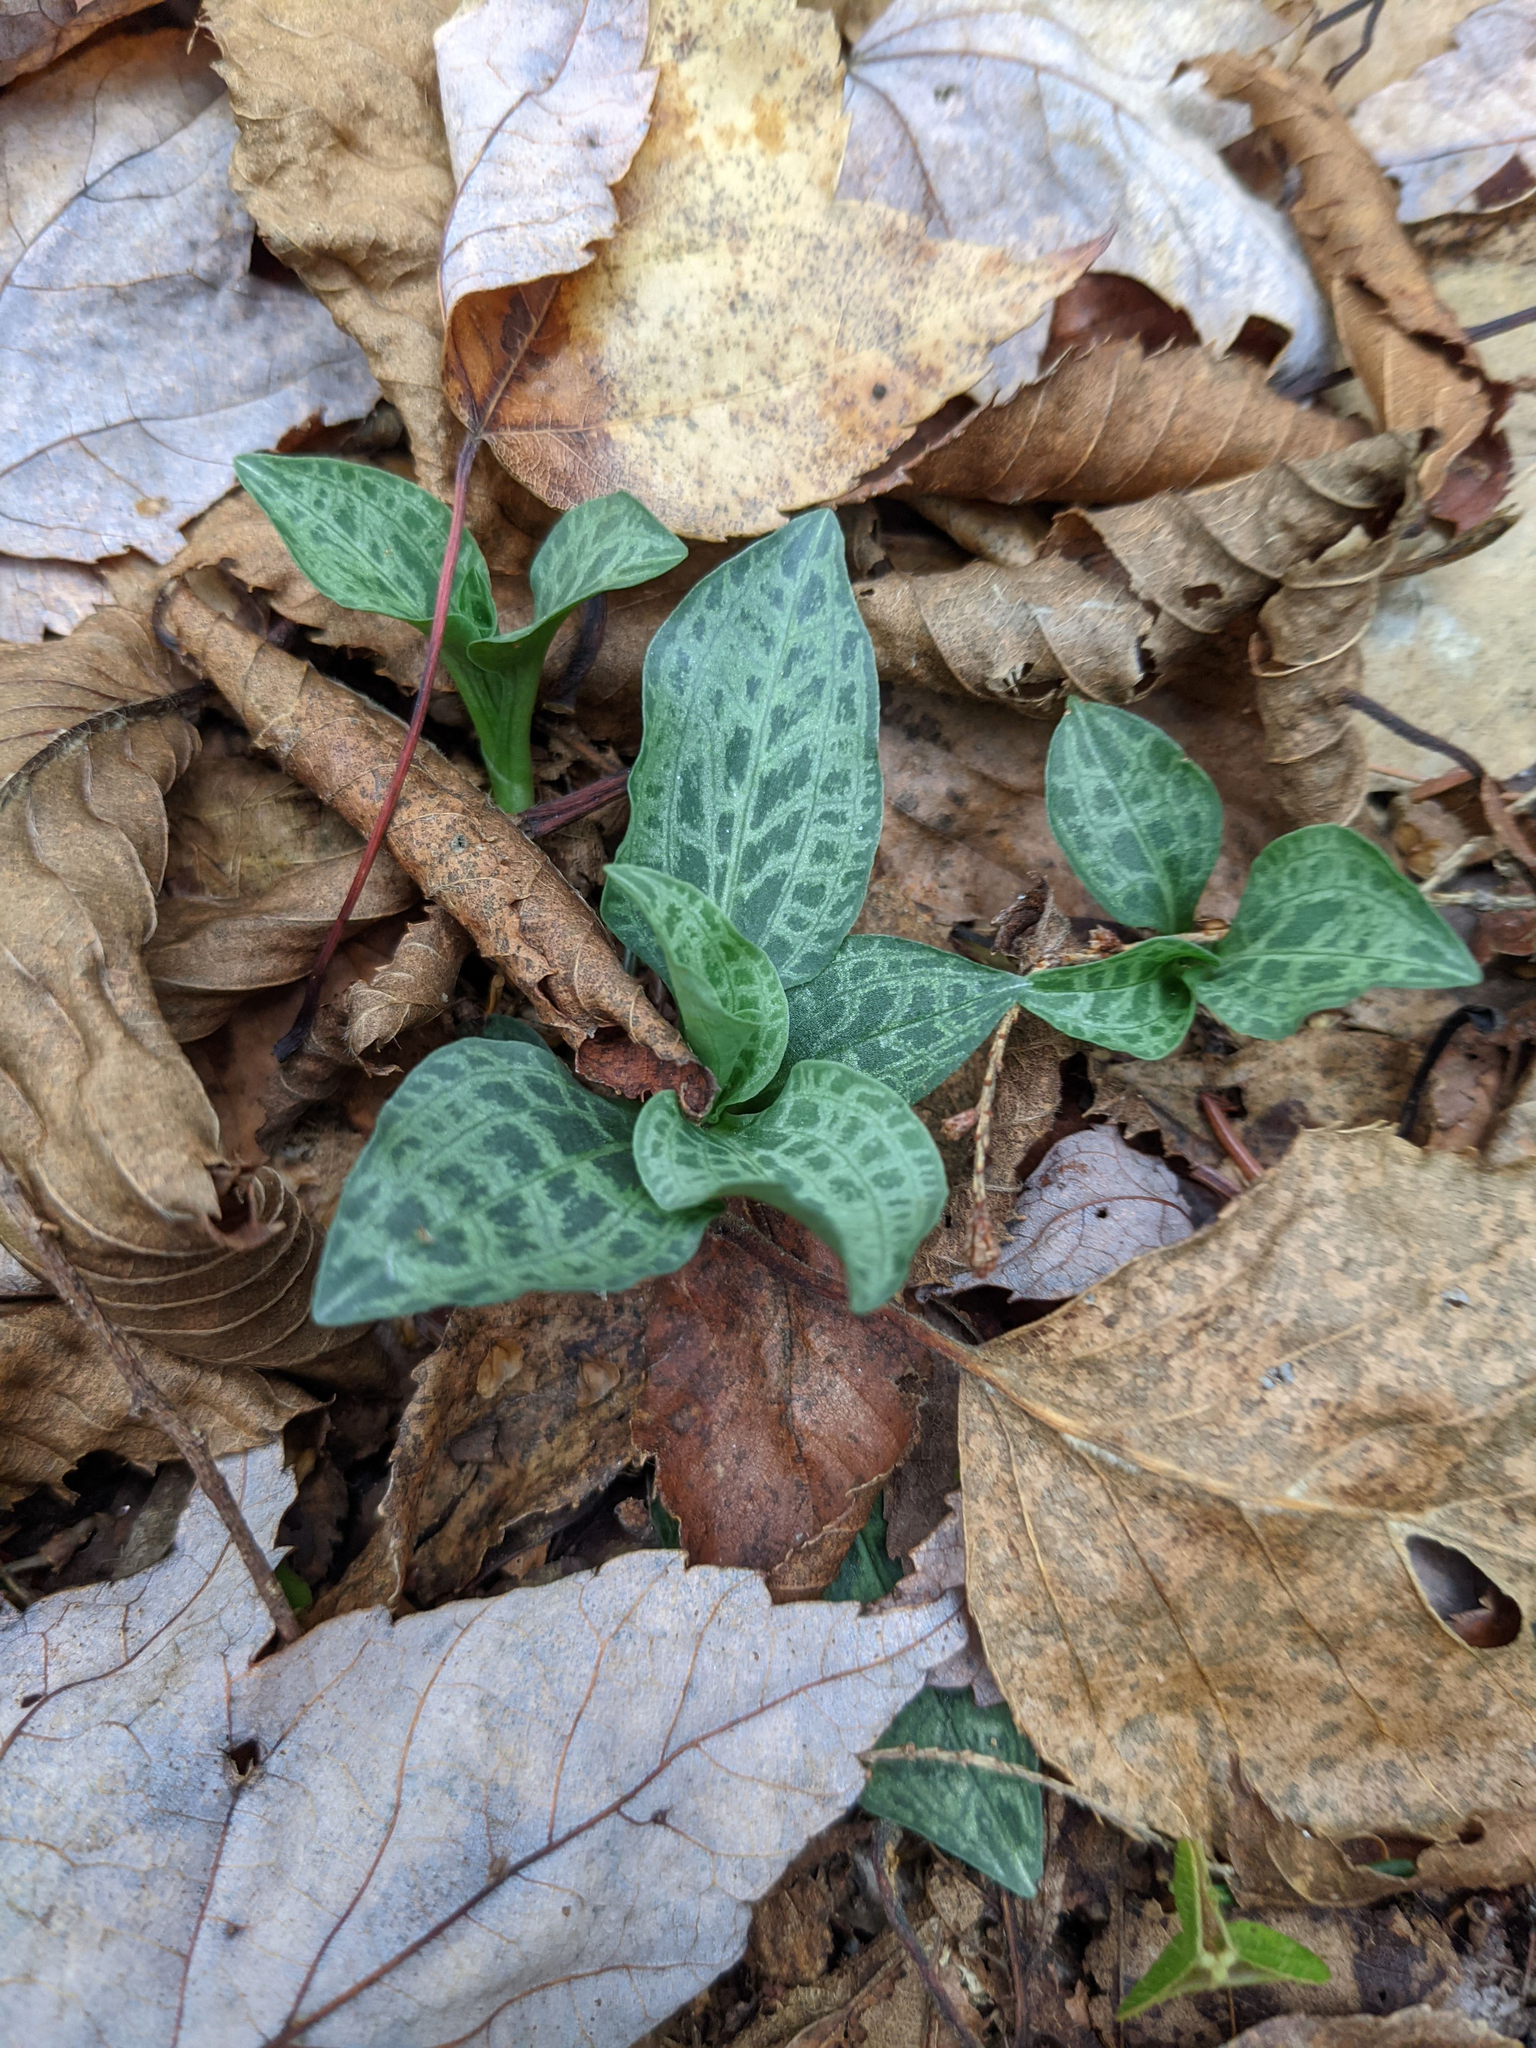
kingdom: Plantae
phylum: Tracheophyta
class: Liliopsida
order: Asparagales
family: Orchidaceae
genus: Goodyera
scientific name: Goodyera tesselata
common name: Checkered rattlesnake-plantain
